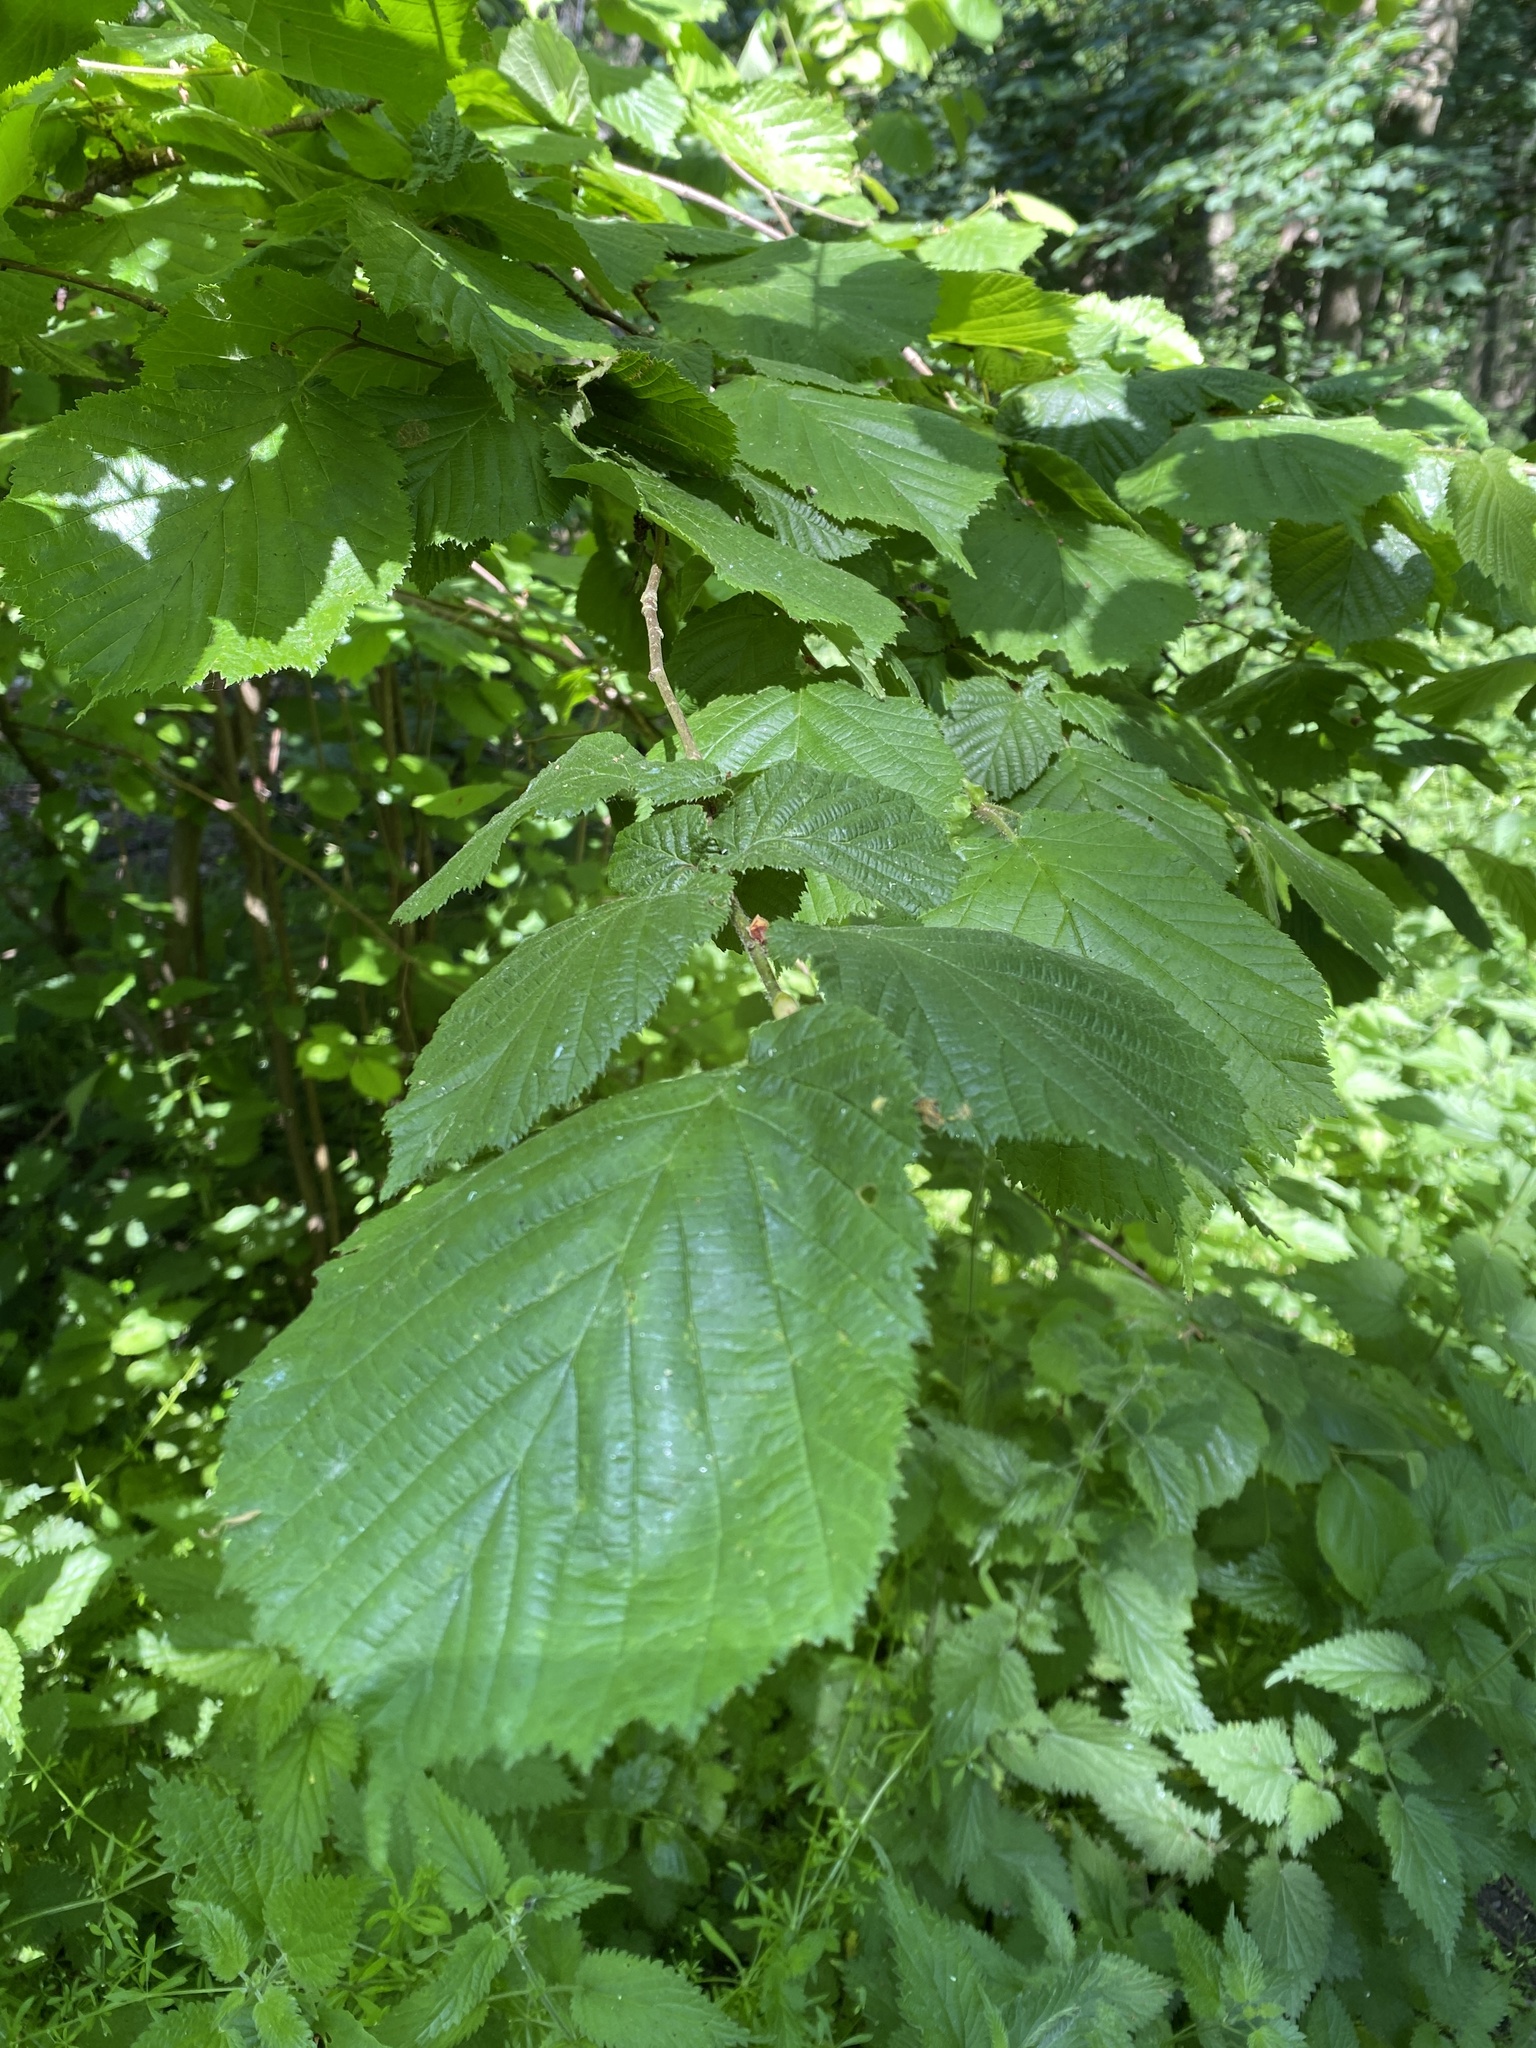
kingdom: Plantae
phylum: Tracheophyta
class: Magnoliopsida
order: Fagales
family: Betulaceae
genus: Corylus
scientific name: Corylus avellana
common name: European hazel
